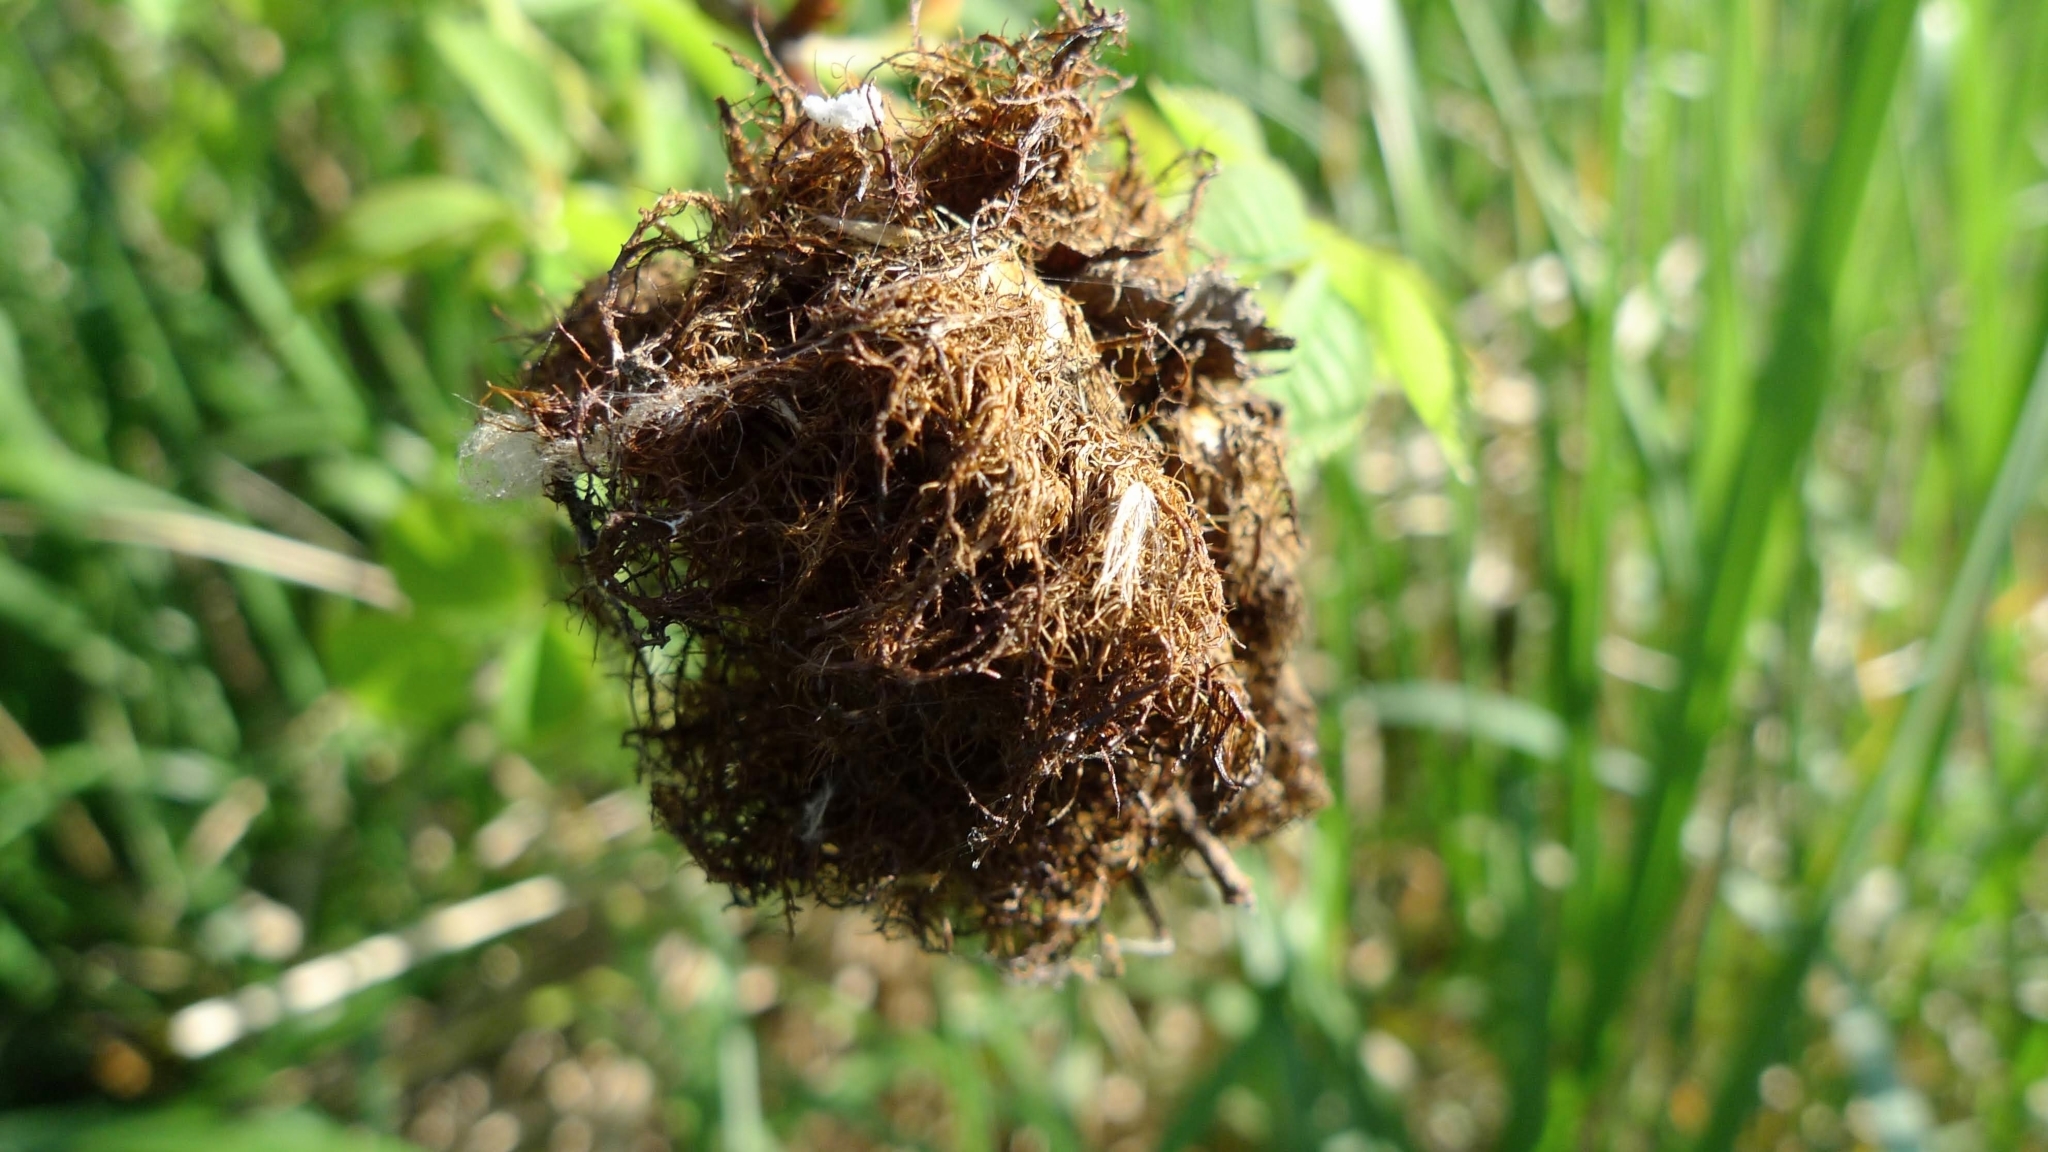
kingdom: Animalia
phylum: Arthropoda
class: Insecta
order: Hymenoptera
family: Cynipidae
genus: Diplolepis
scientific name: Diplolepis rosae
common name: Bedeguar gall
